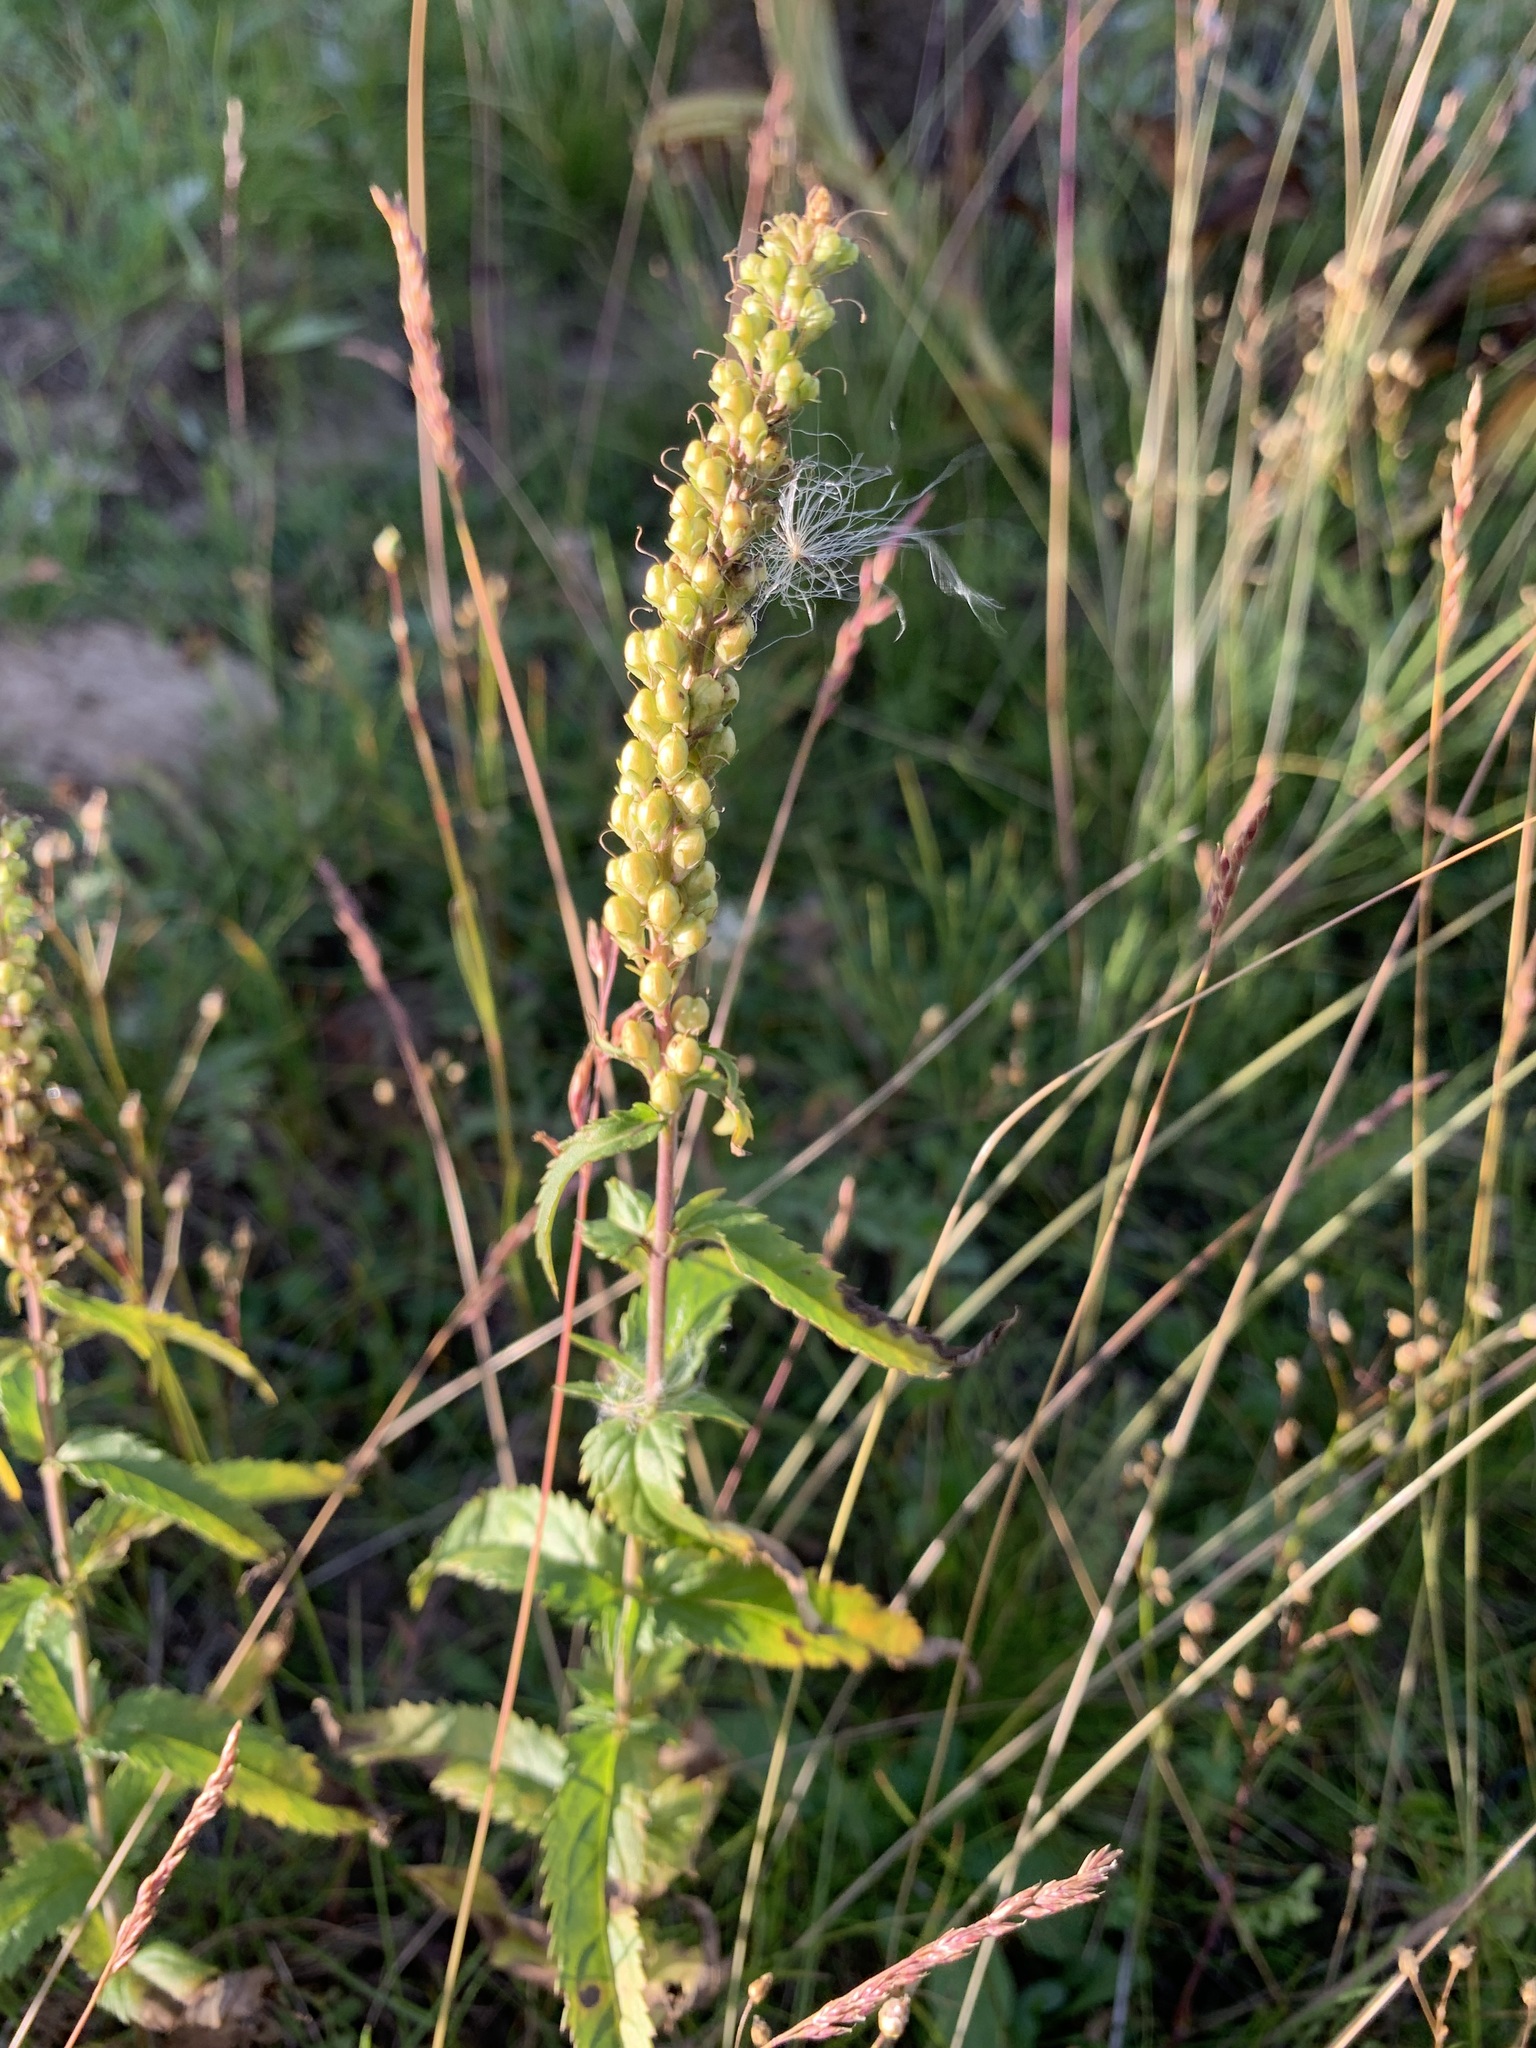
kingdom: Plantae
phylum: Tracheophyta
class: Magnoliopsida
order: Lamiales
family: Plantaginaceae
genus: Veronica
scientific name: Veronica longifolia
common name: Garden speedwell
